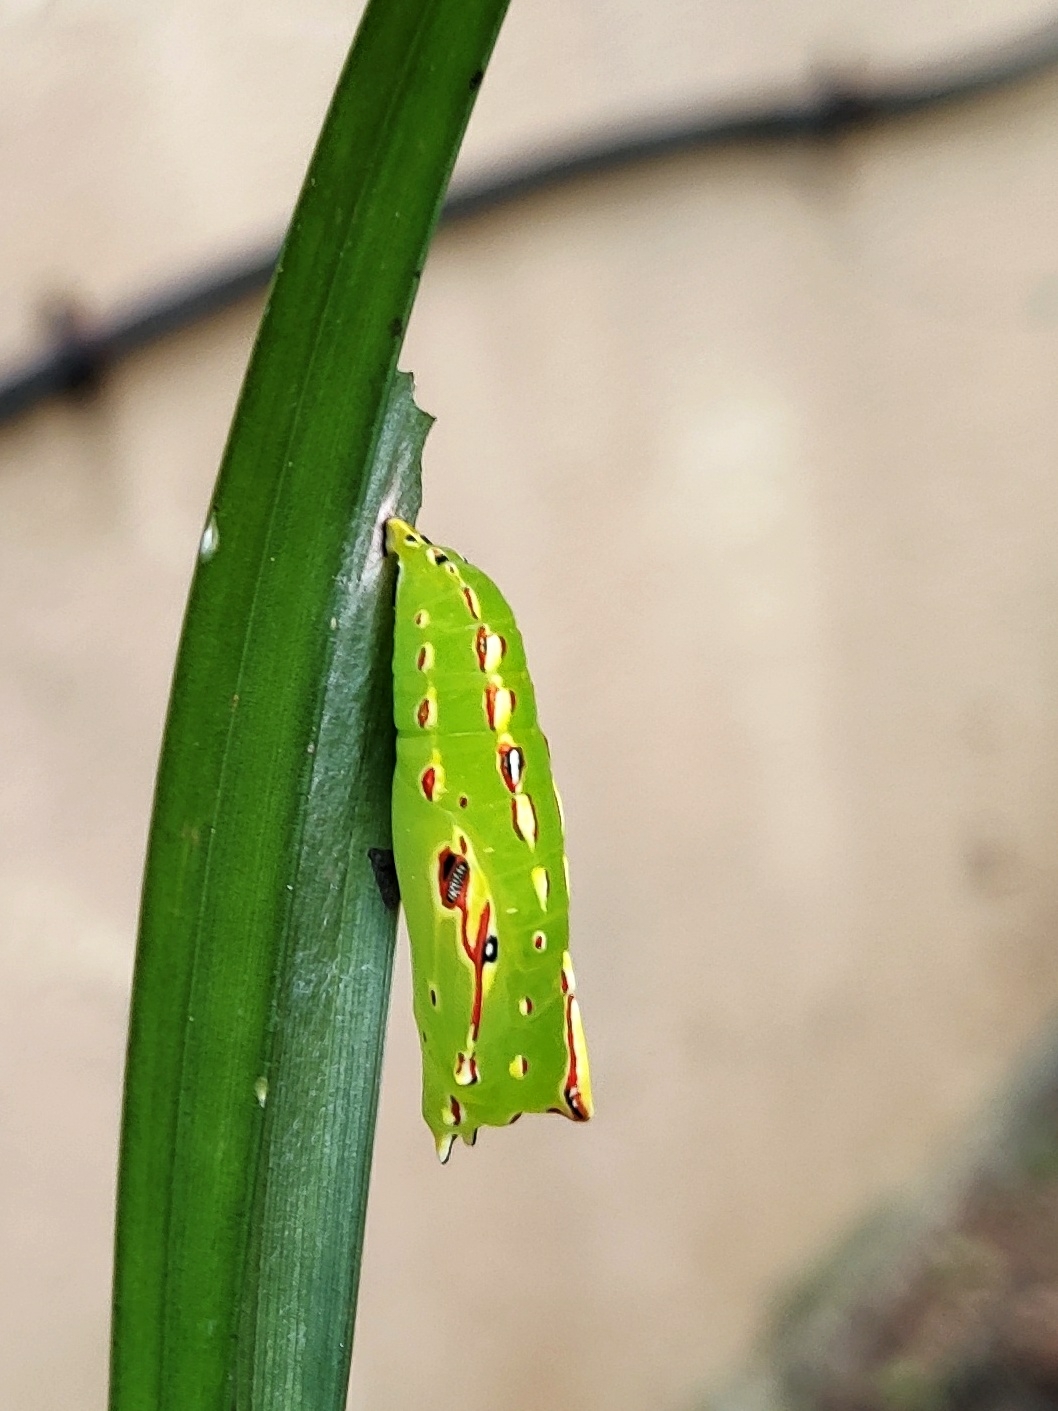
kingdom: Animalia
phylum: Arthropoda
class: Insecta
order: Lepidoptera
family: Nymphalidae
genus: Elymnias
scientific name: Elymnias caudata
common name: Tailed palmfly
